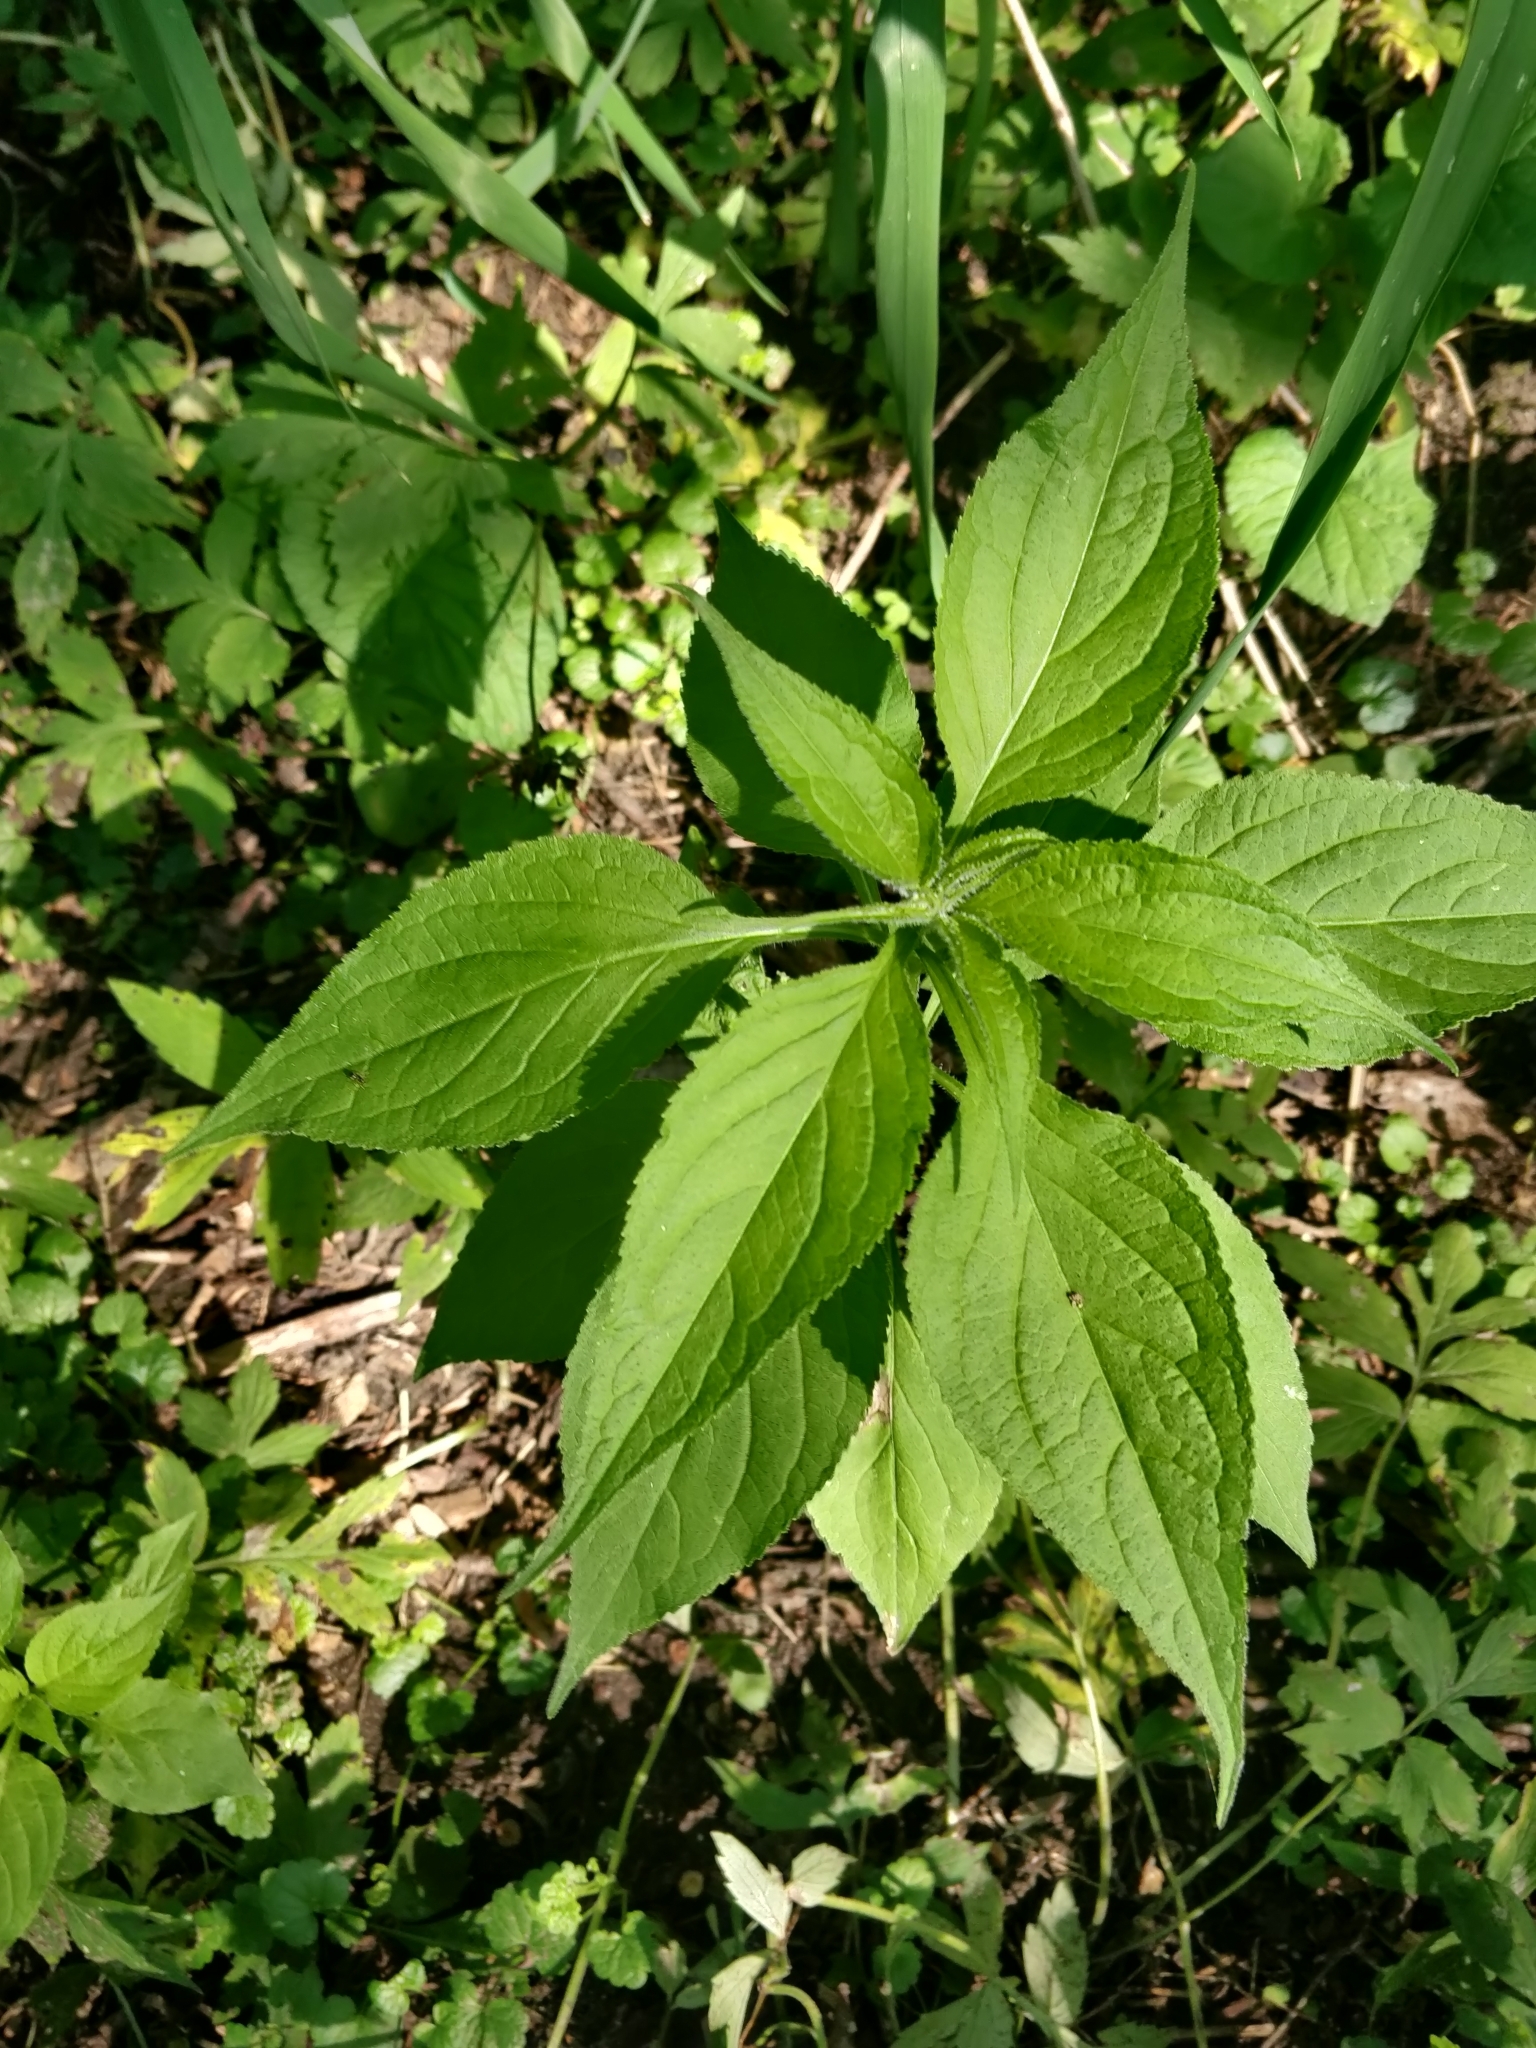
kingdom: Plantae
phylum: Tracheophyta
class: Magnoliopsida
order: Asterales
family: Campanulaceae
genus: Campanulastrum
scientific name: Campanulastrum americanum
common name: American bellflower
